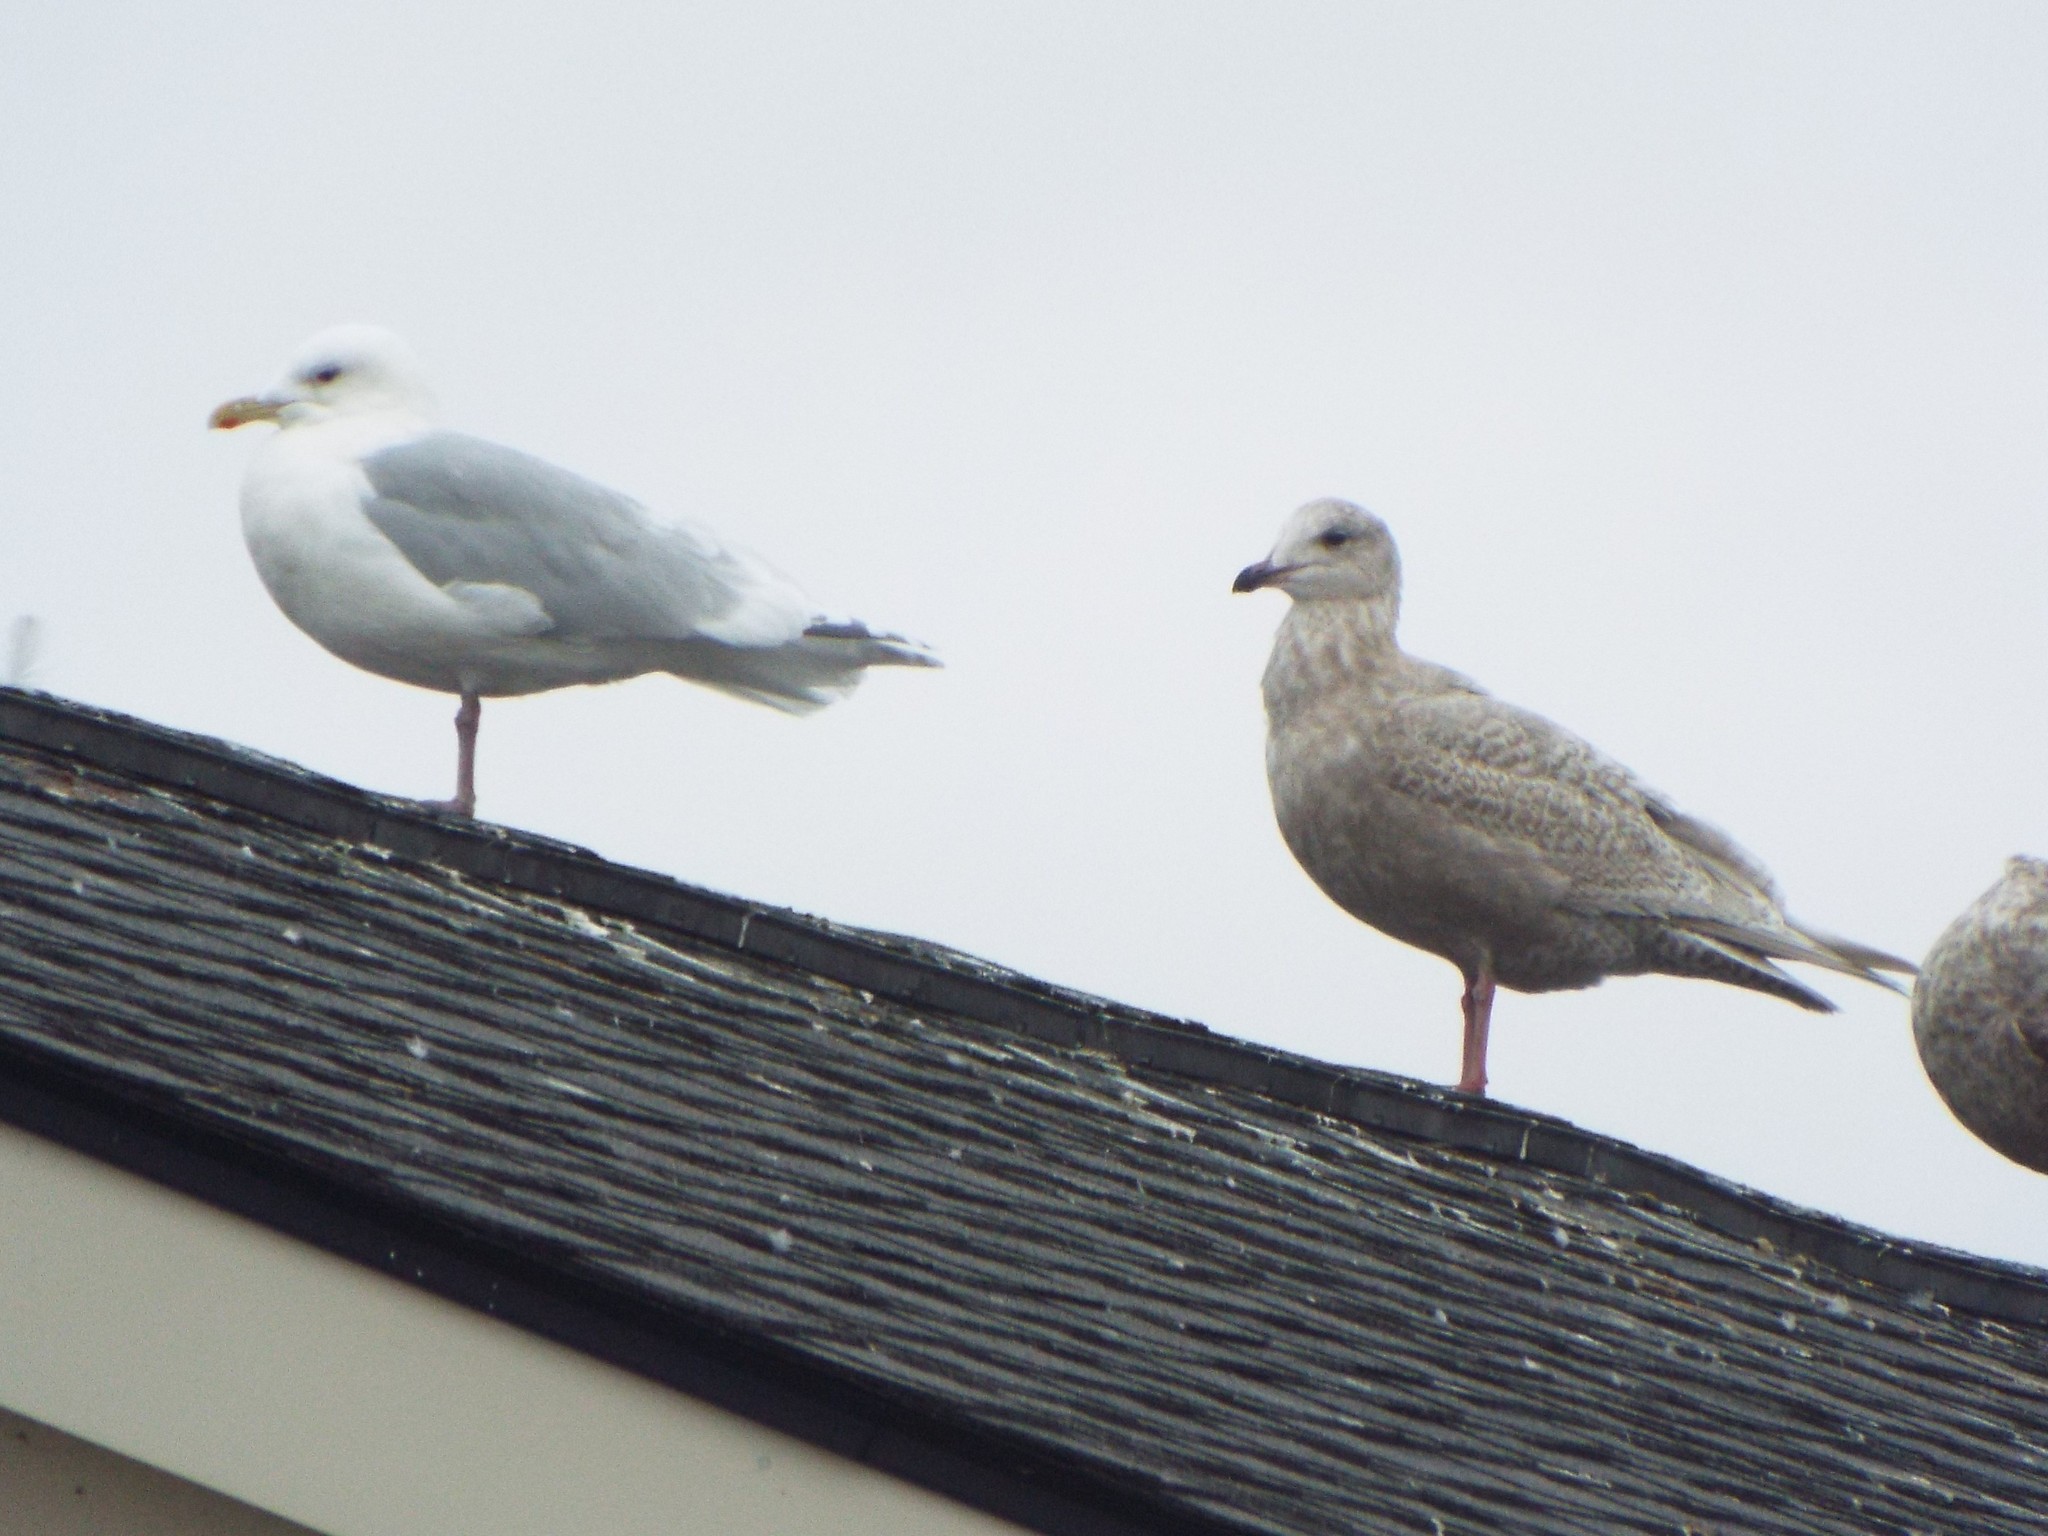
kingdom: Animalia
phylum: Chordata
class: Aves
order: Charadriiformes
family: Laridae
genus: Larus
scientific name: Larus glaucoides
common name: Iceland gull
